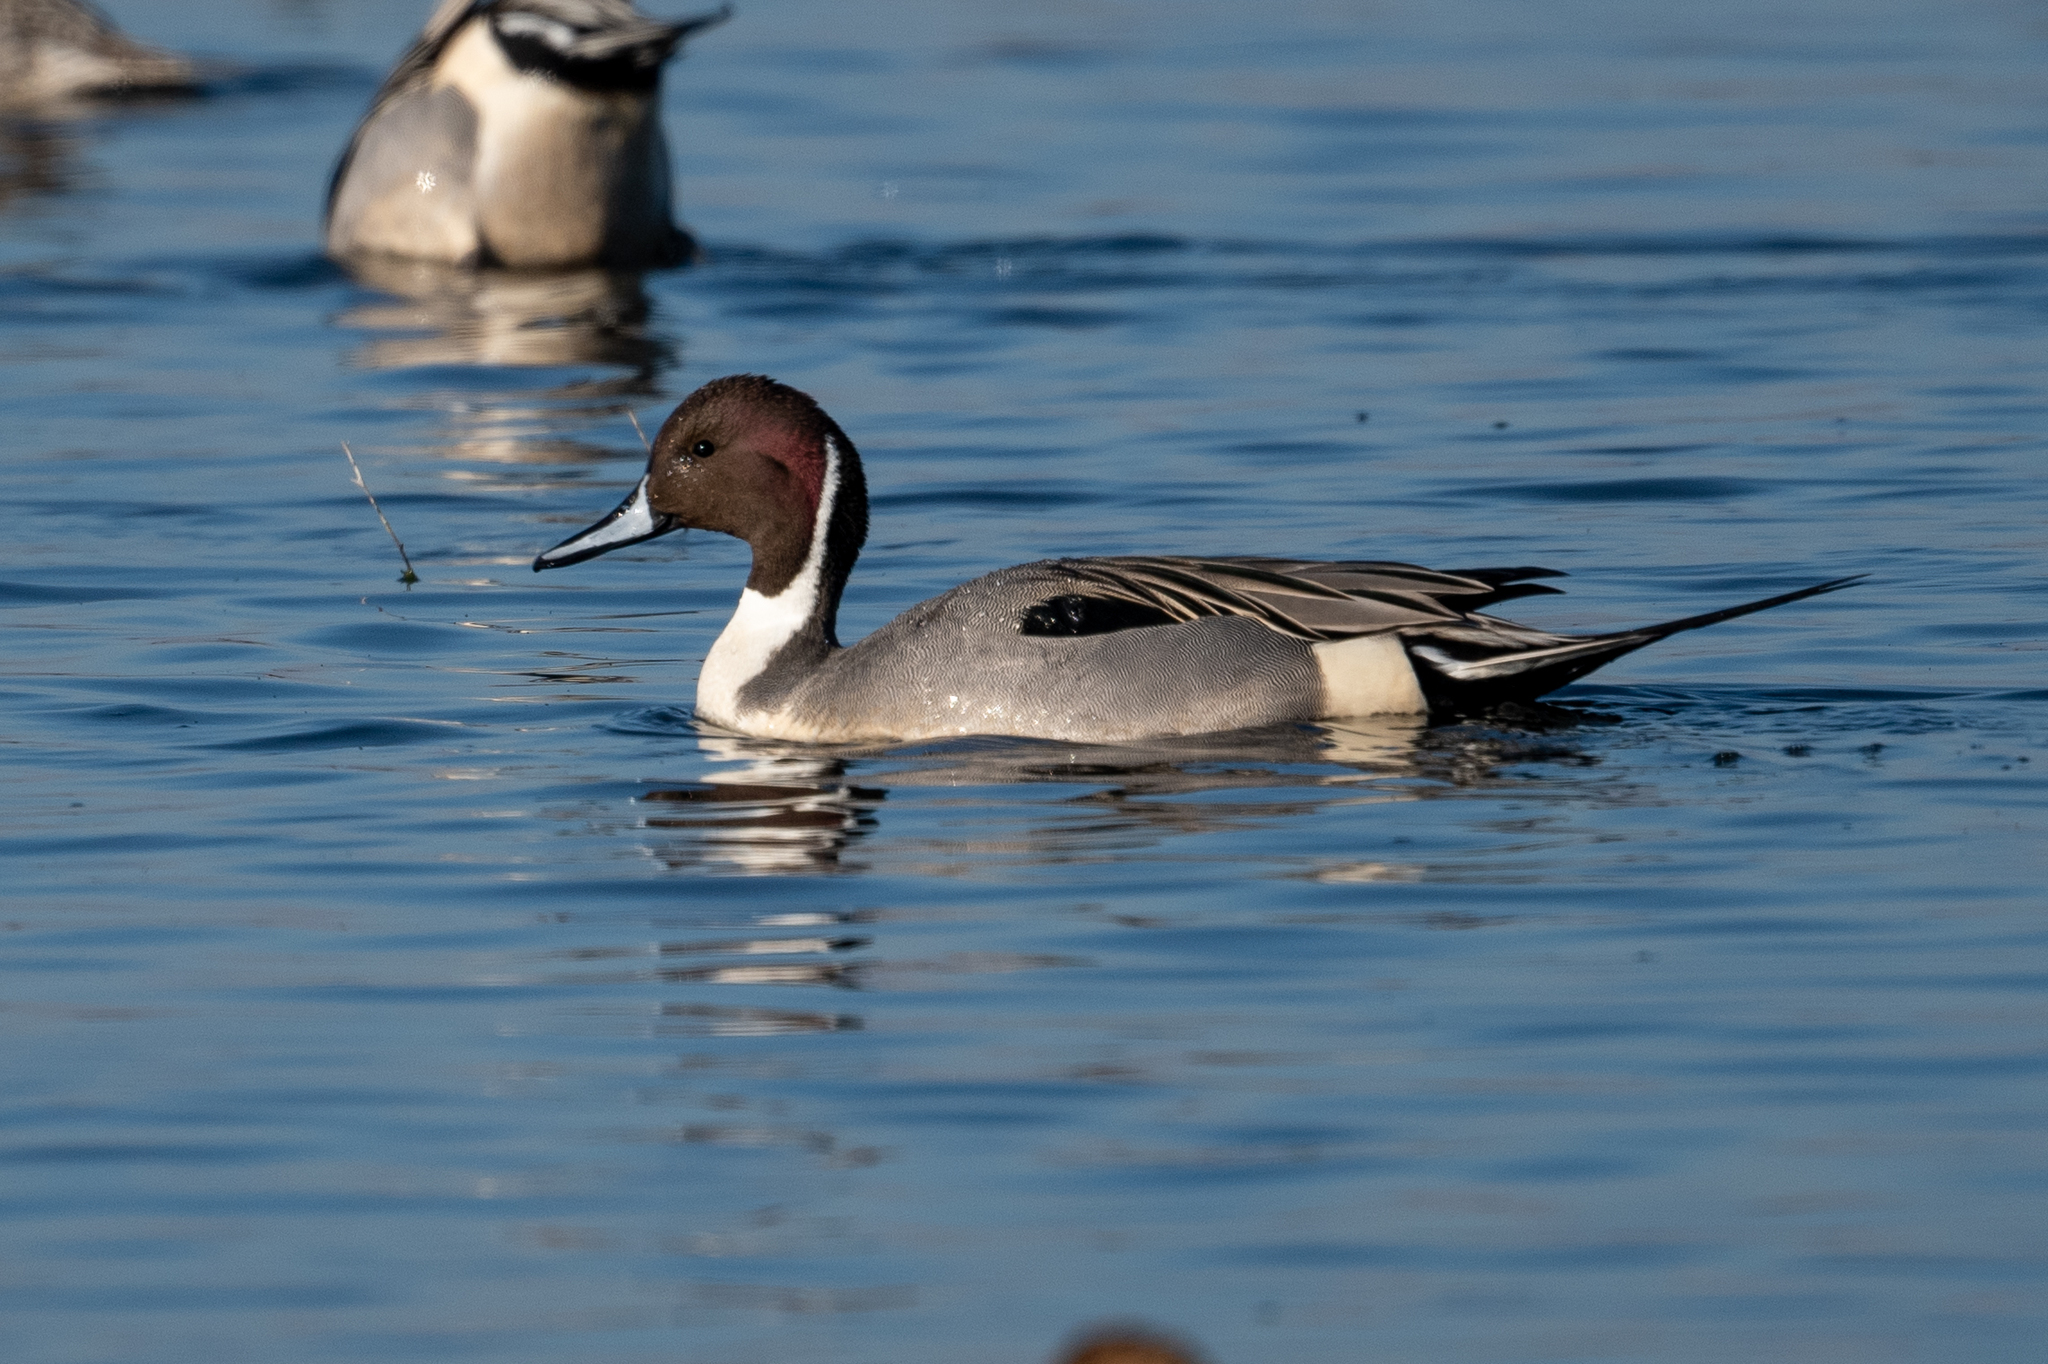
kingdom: Animalia
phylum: Chordata
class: Aves
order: Anseriformes
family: Anatidae
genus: Anas
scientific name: Anas acuta
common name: Northern pintail
